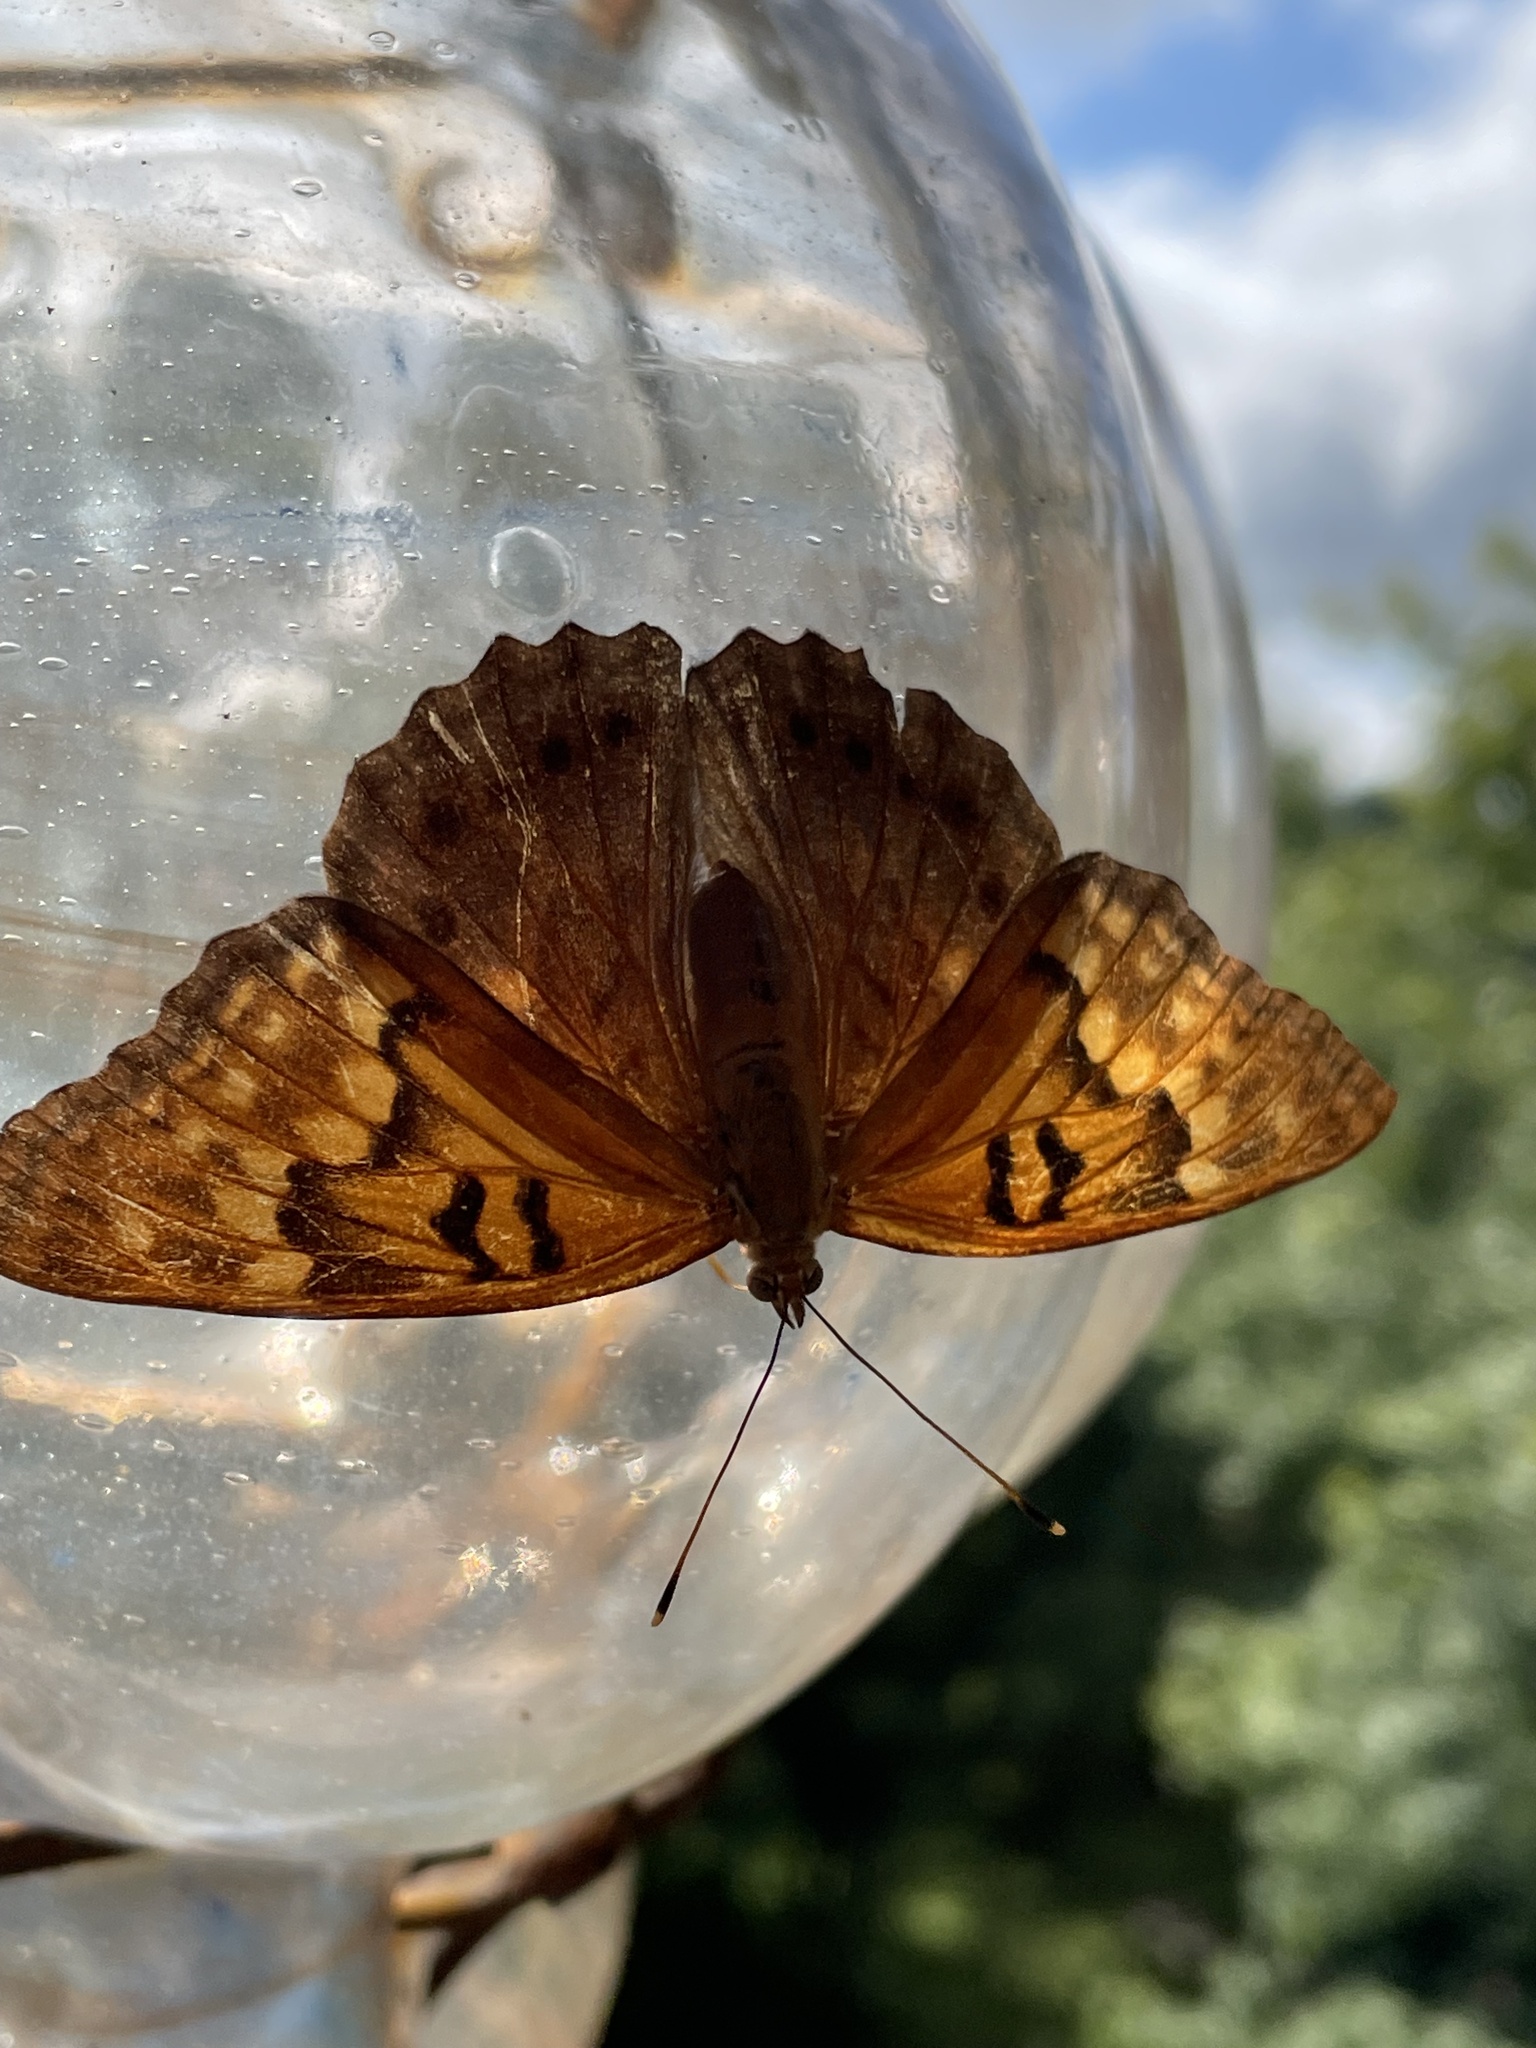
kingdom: Animalia
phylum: Arthropoda
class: Insecta
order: Lepidoptera
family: Nymphalidae
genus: Asterocampa
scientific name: Asterocampa clyton
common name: Tawny emperor
